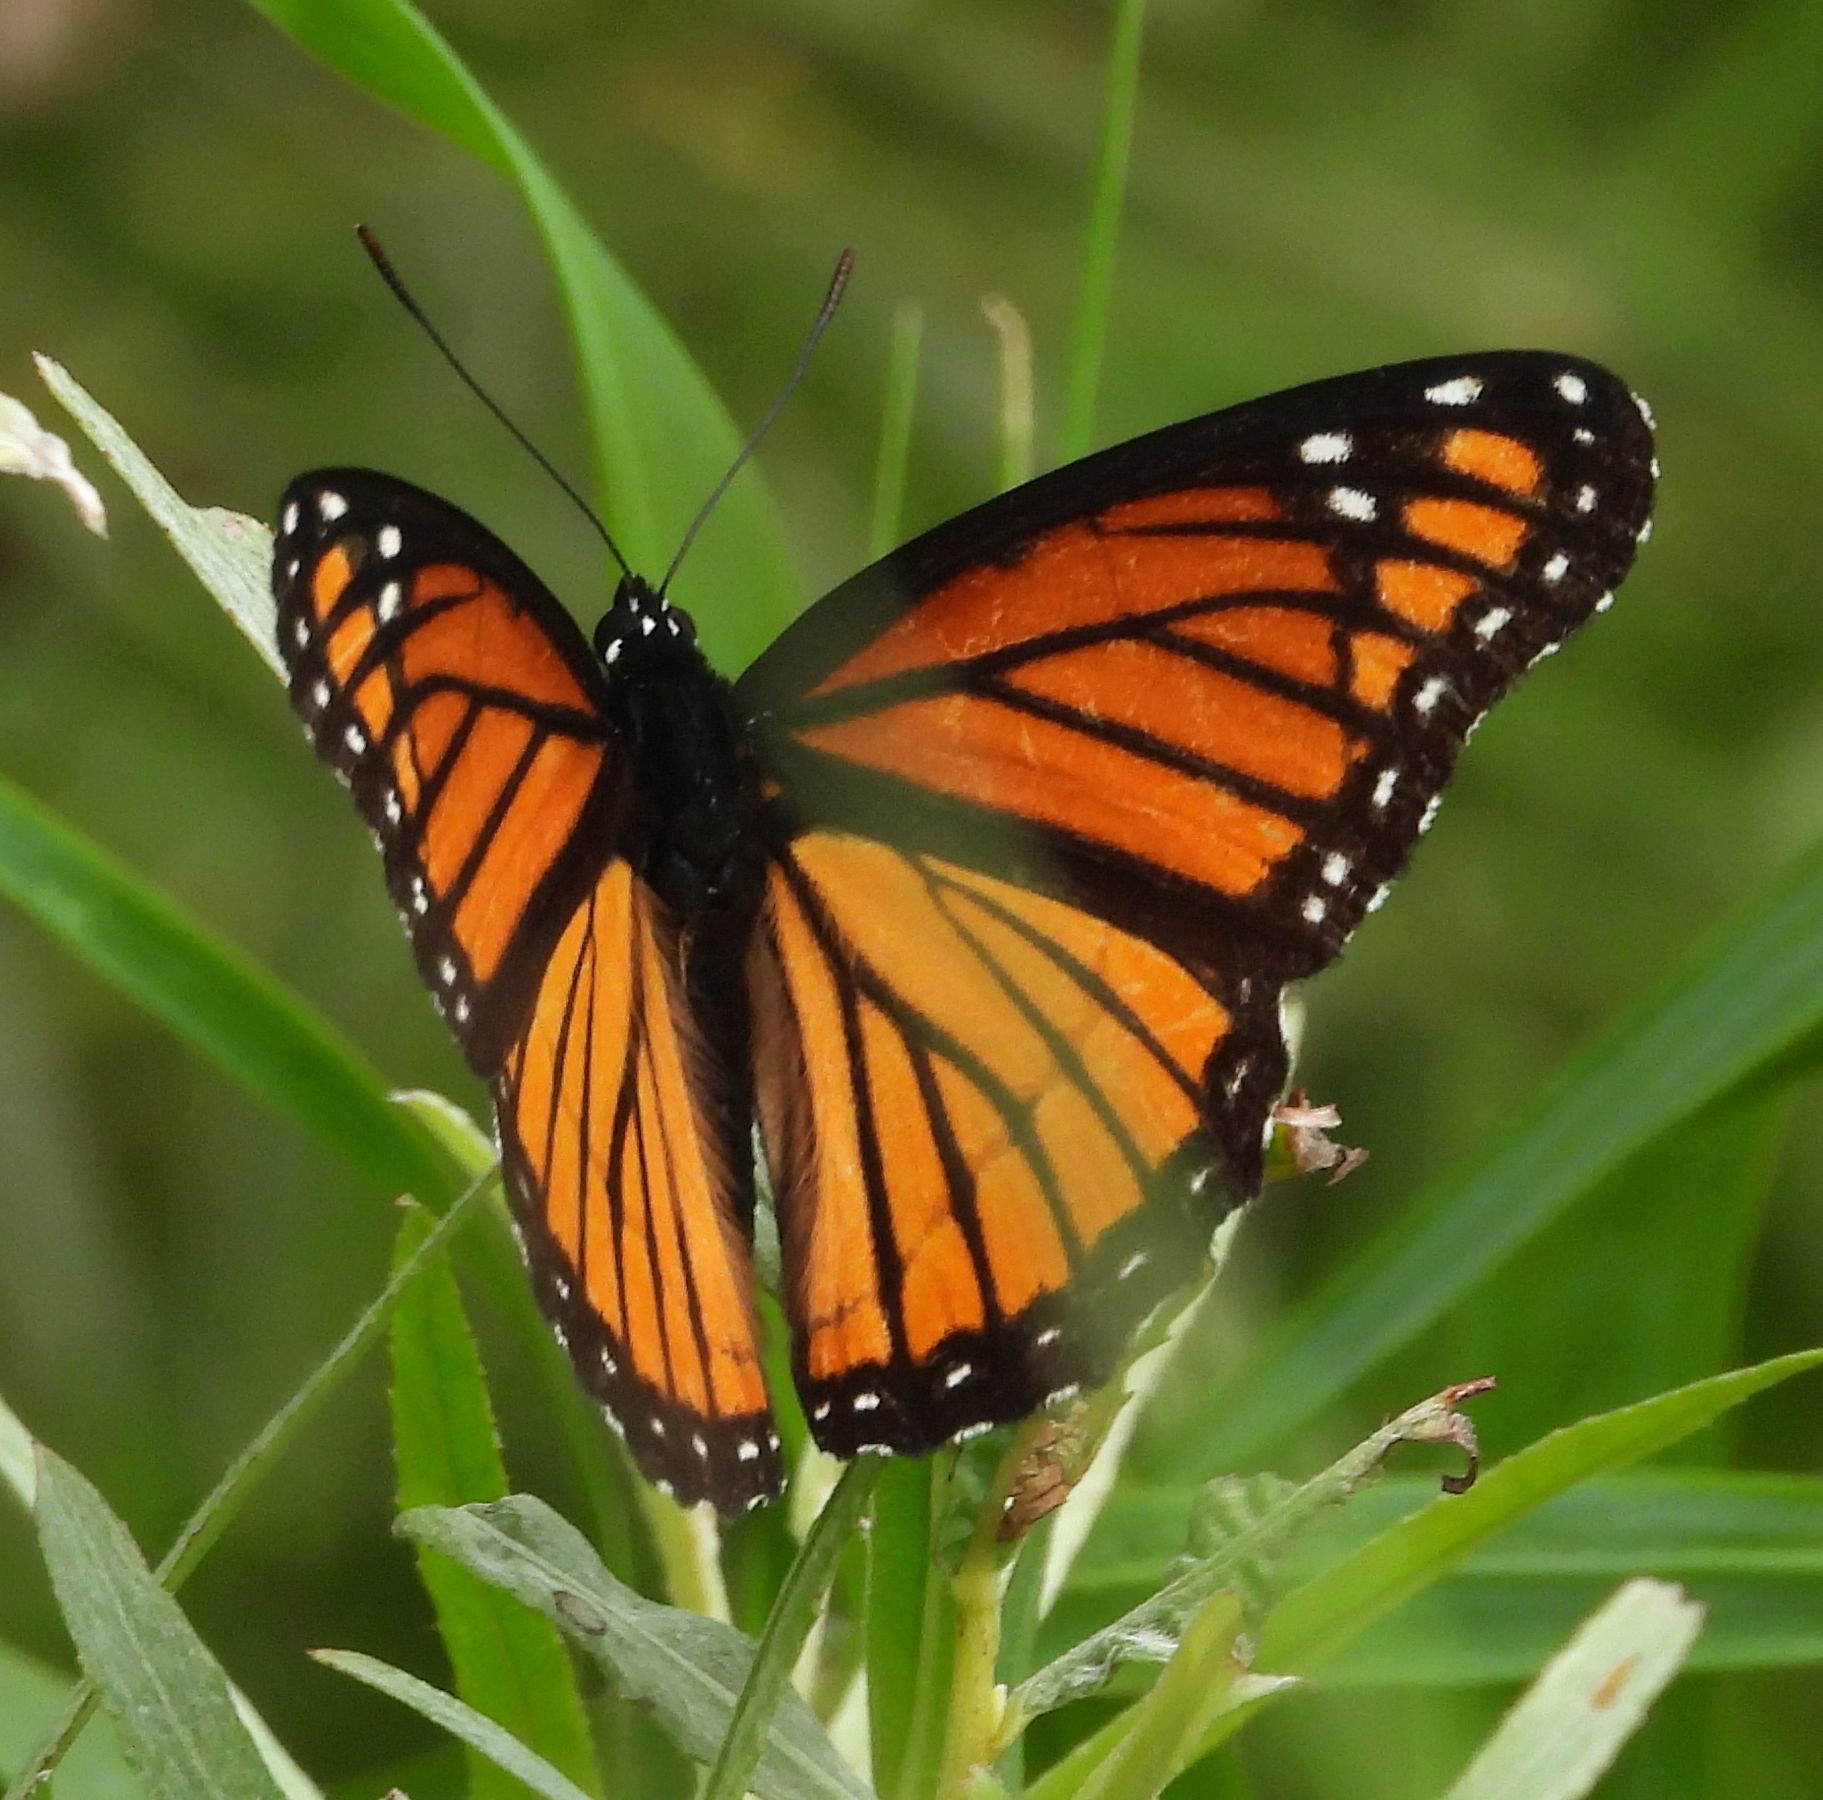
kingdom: Animalia
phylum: Arthropoda
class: Insecta
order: Lepidoptera
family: Nymphalidae
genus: Limenitis
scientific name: Limenitis archippus
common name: Viceroy
